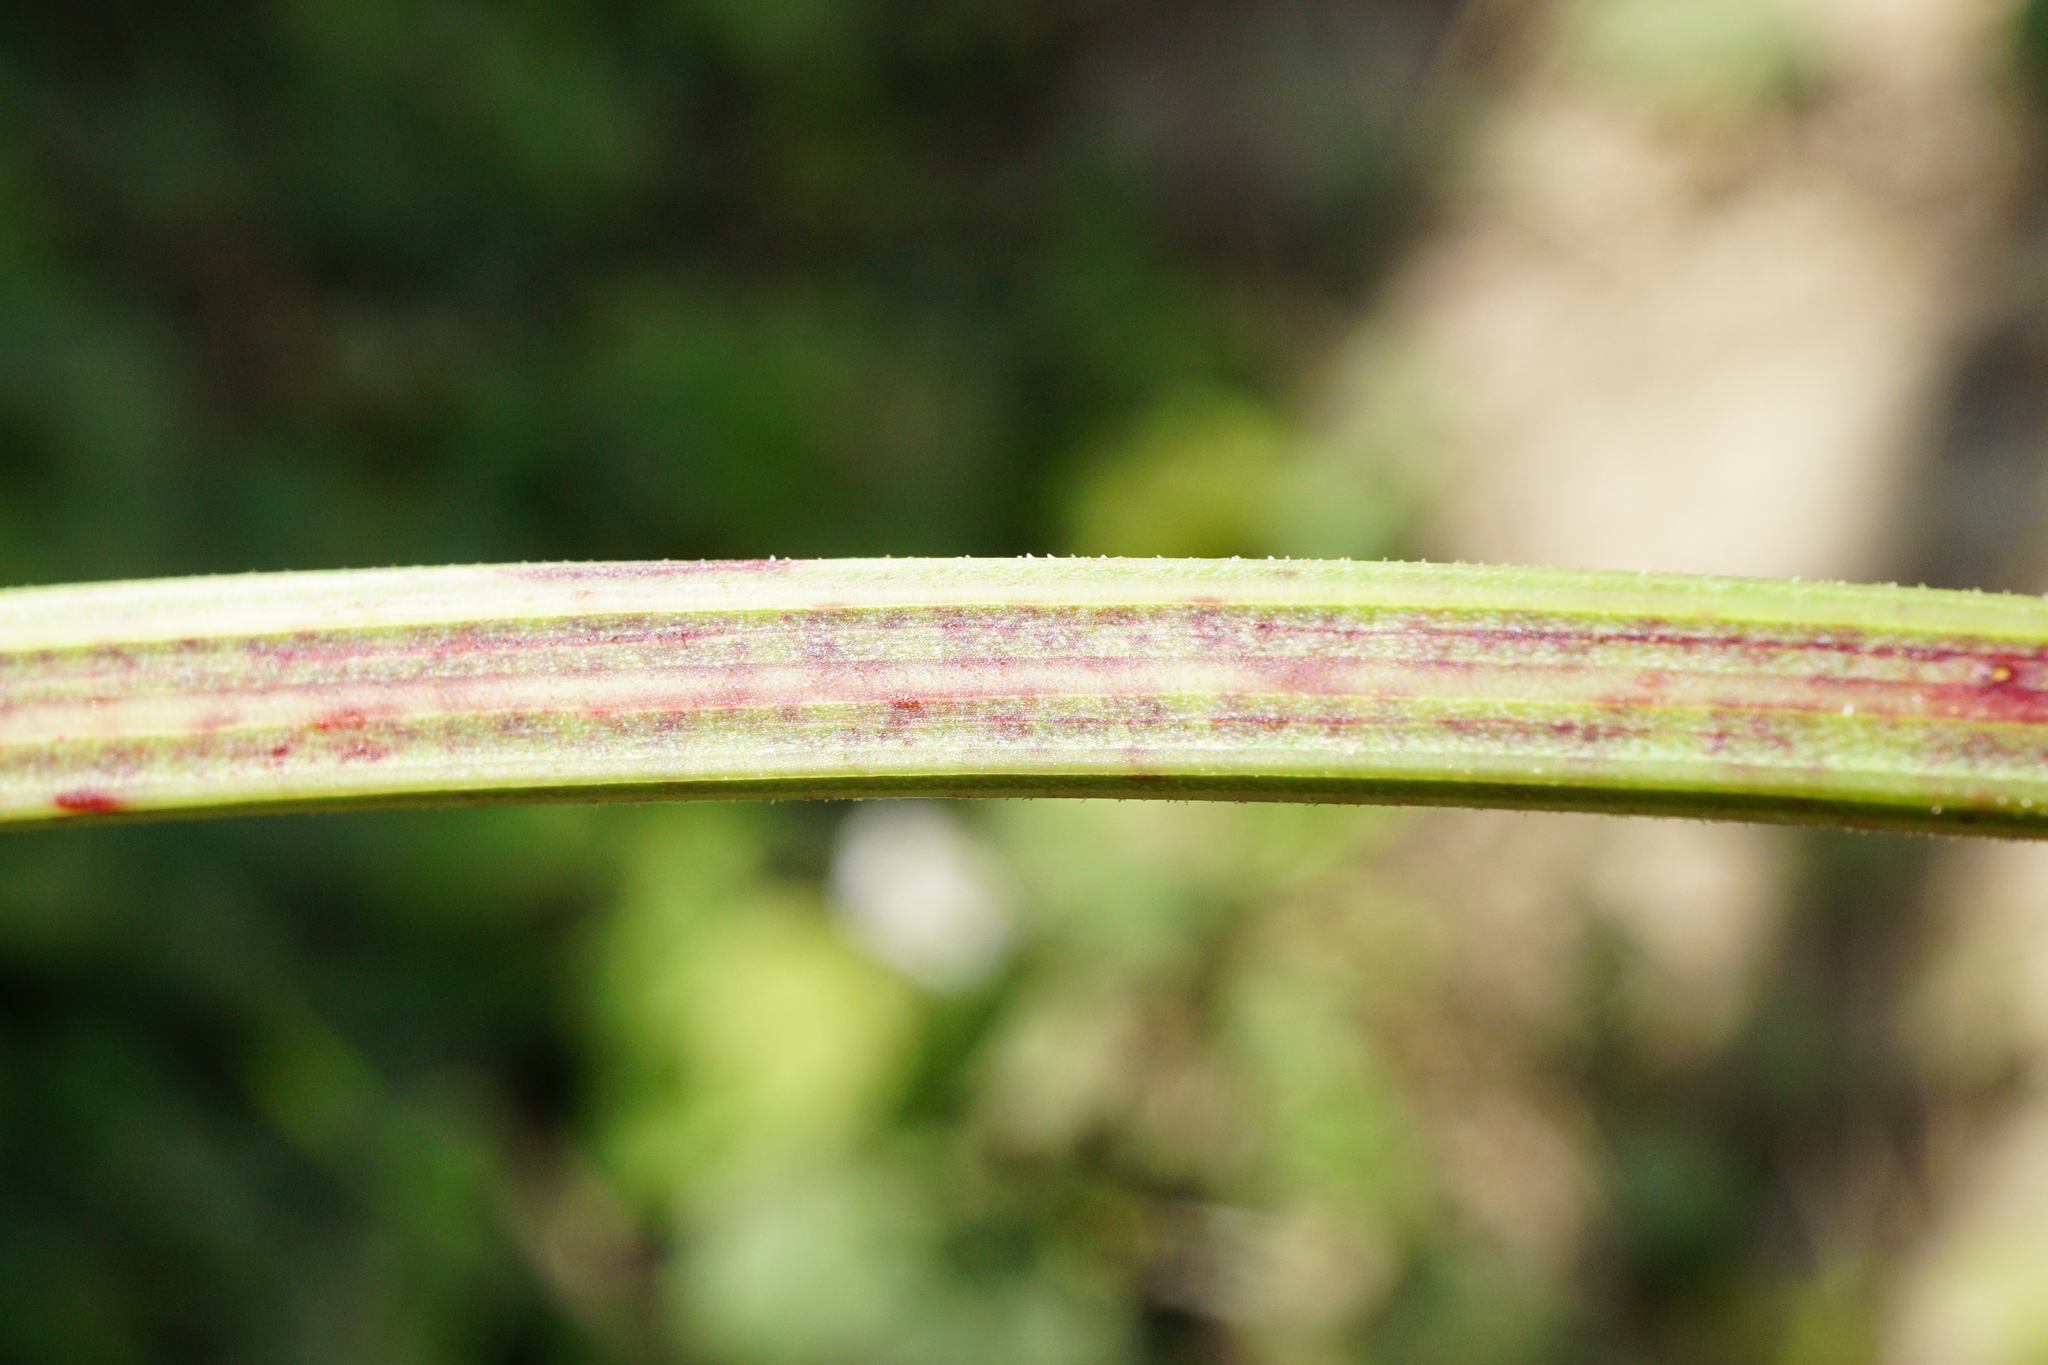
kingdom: Plantae
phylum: Tracheophyta
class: Magnoliopsida
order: Caryophyllales
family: Polygonaceae
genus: Rumex
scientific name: Rumex obtusifolius
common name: Bitter dock
